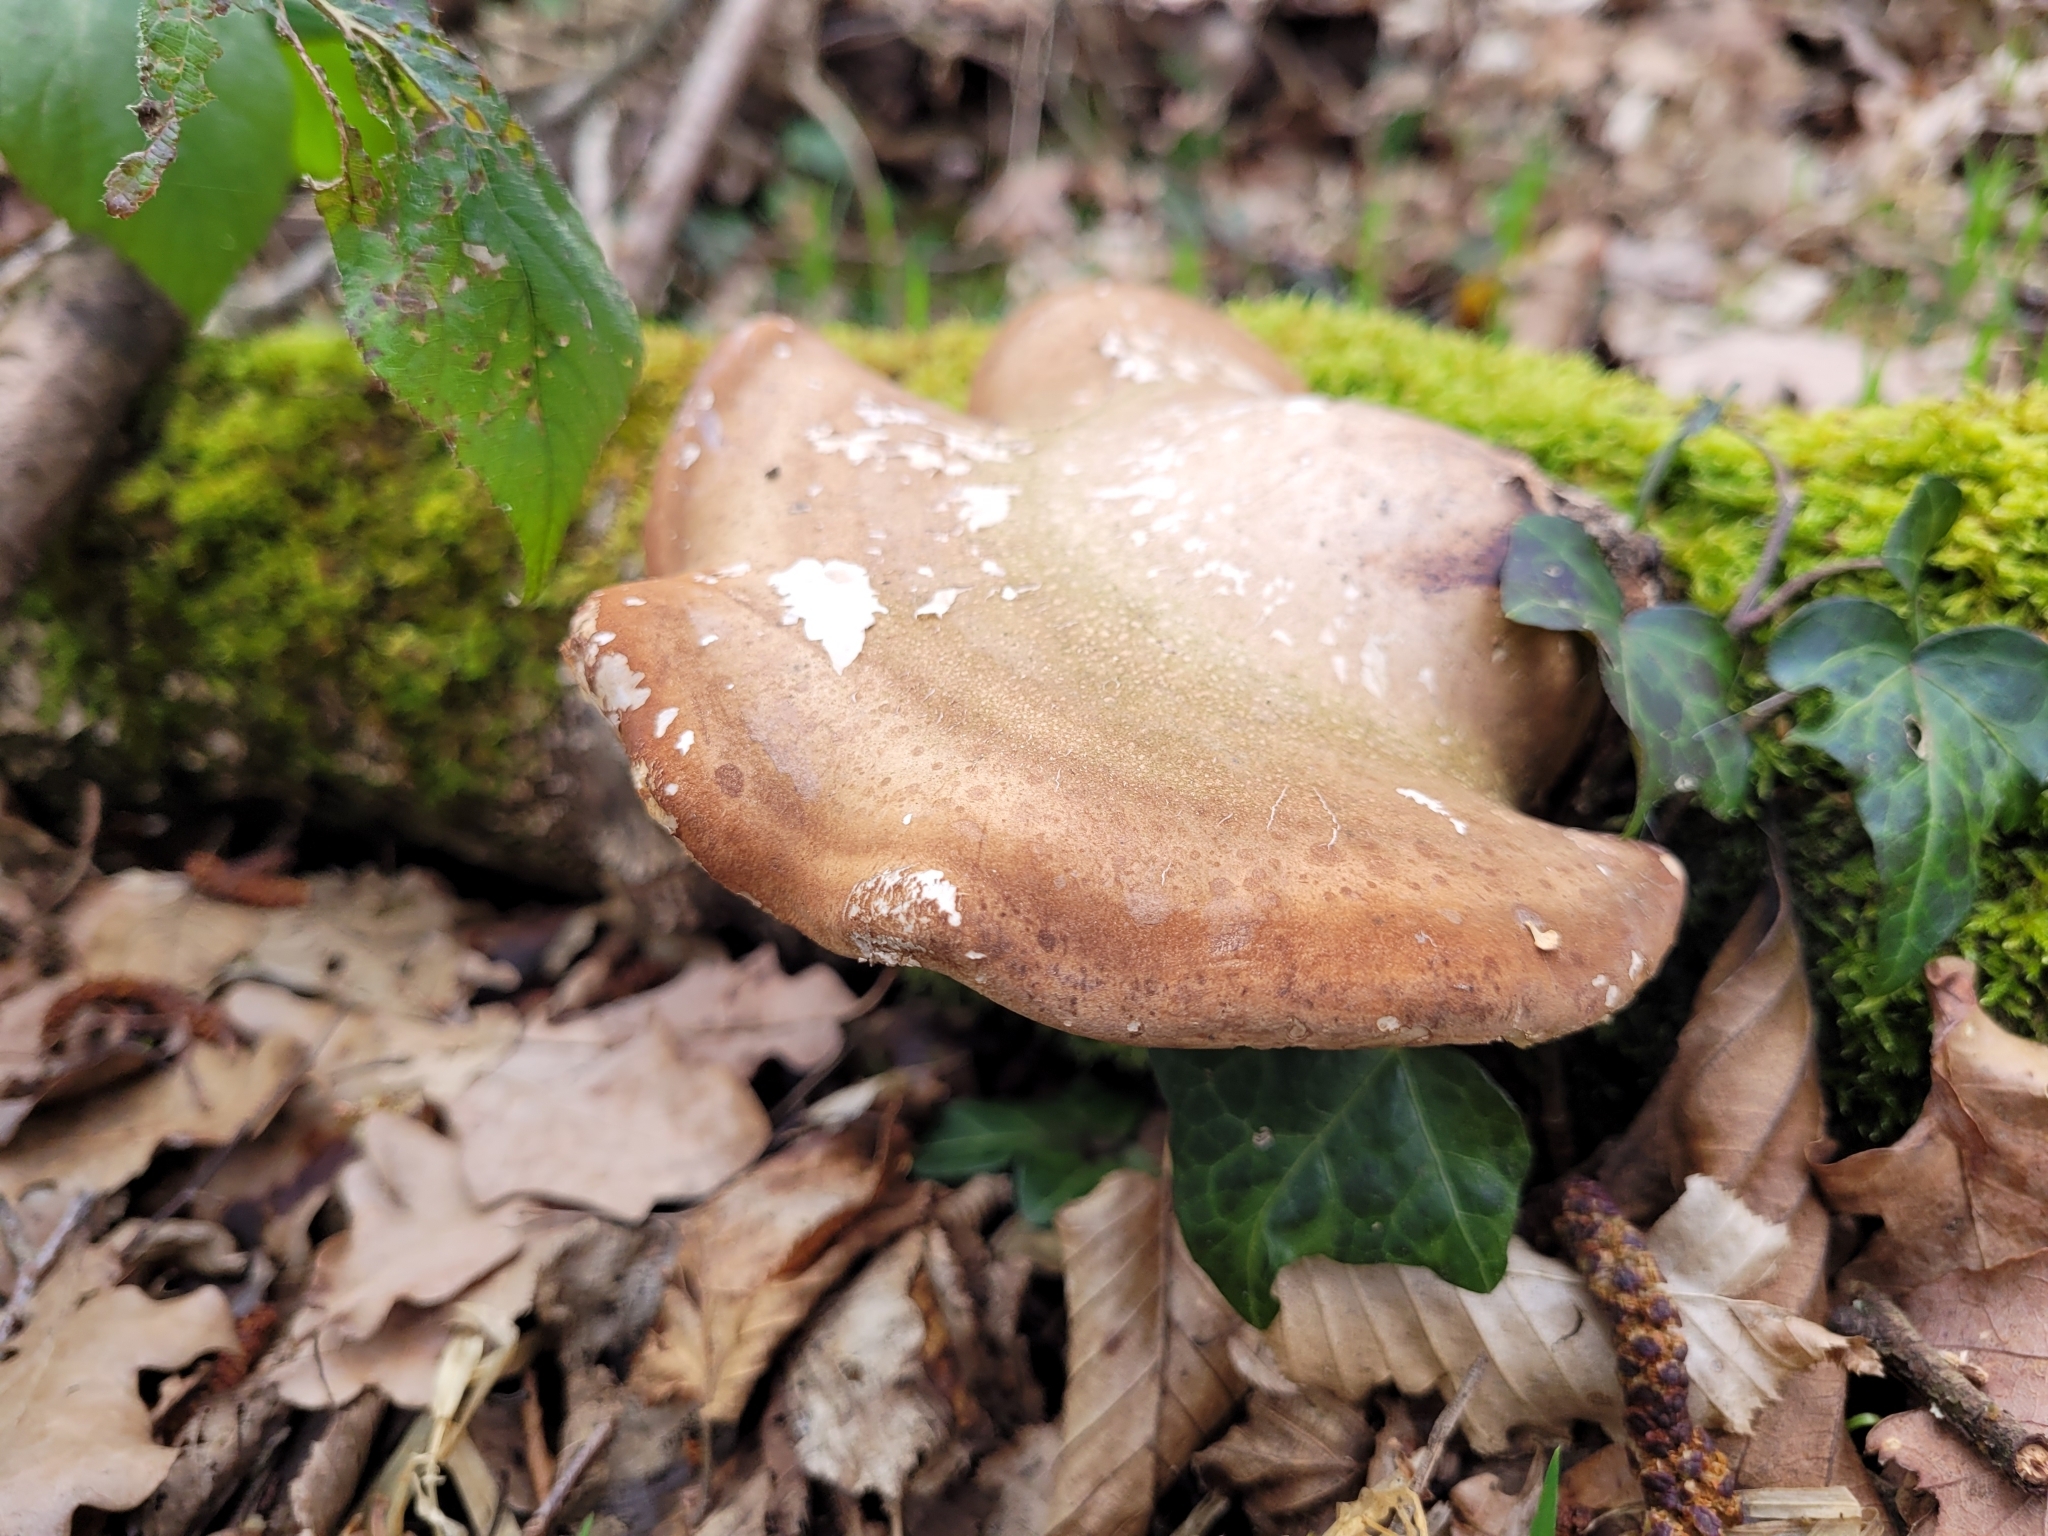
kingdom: Fungi
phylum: Basidiomycota
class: Agaricomycetes
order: Polyporales
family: Fomitopsidaceae
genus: Fomitopsis
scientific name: Fomitopsis betulina
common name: Birch polypore
